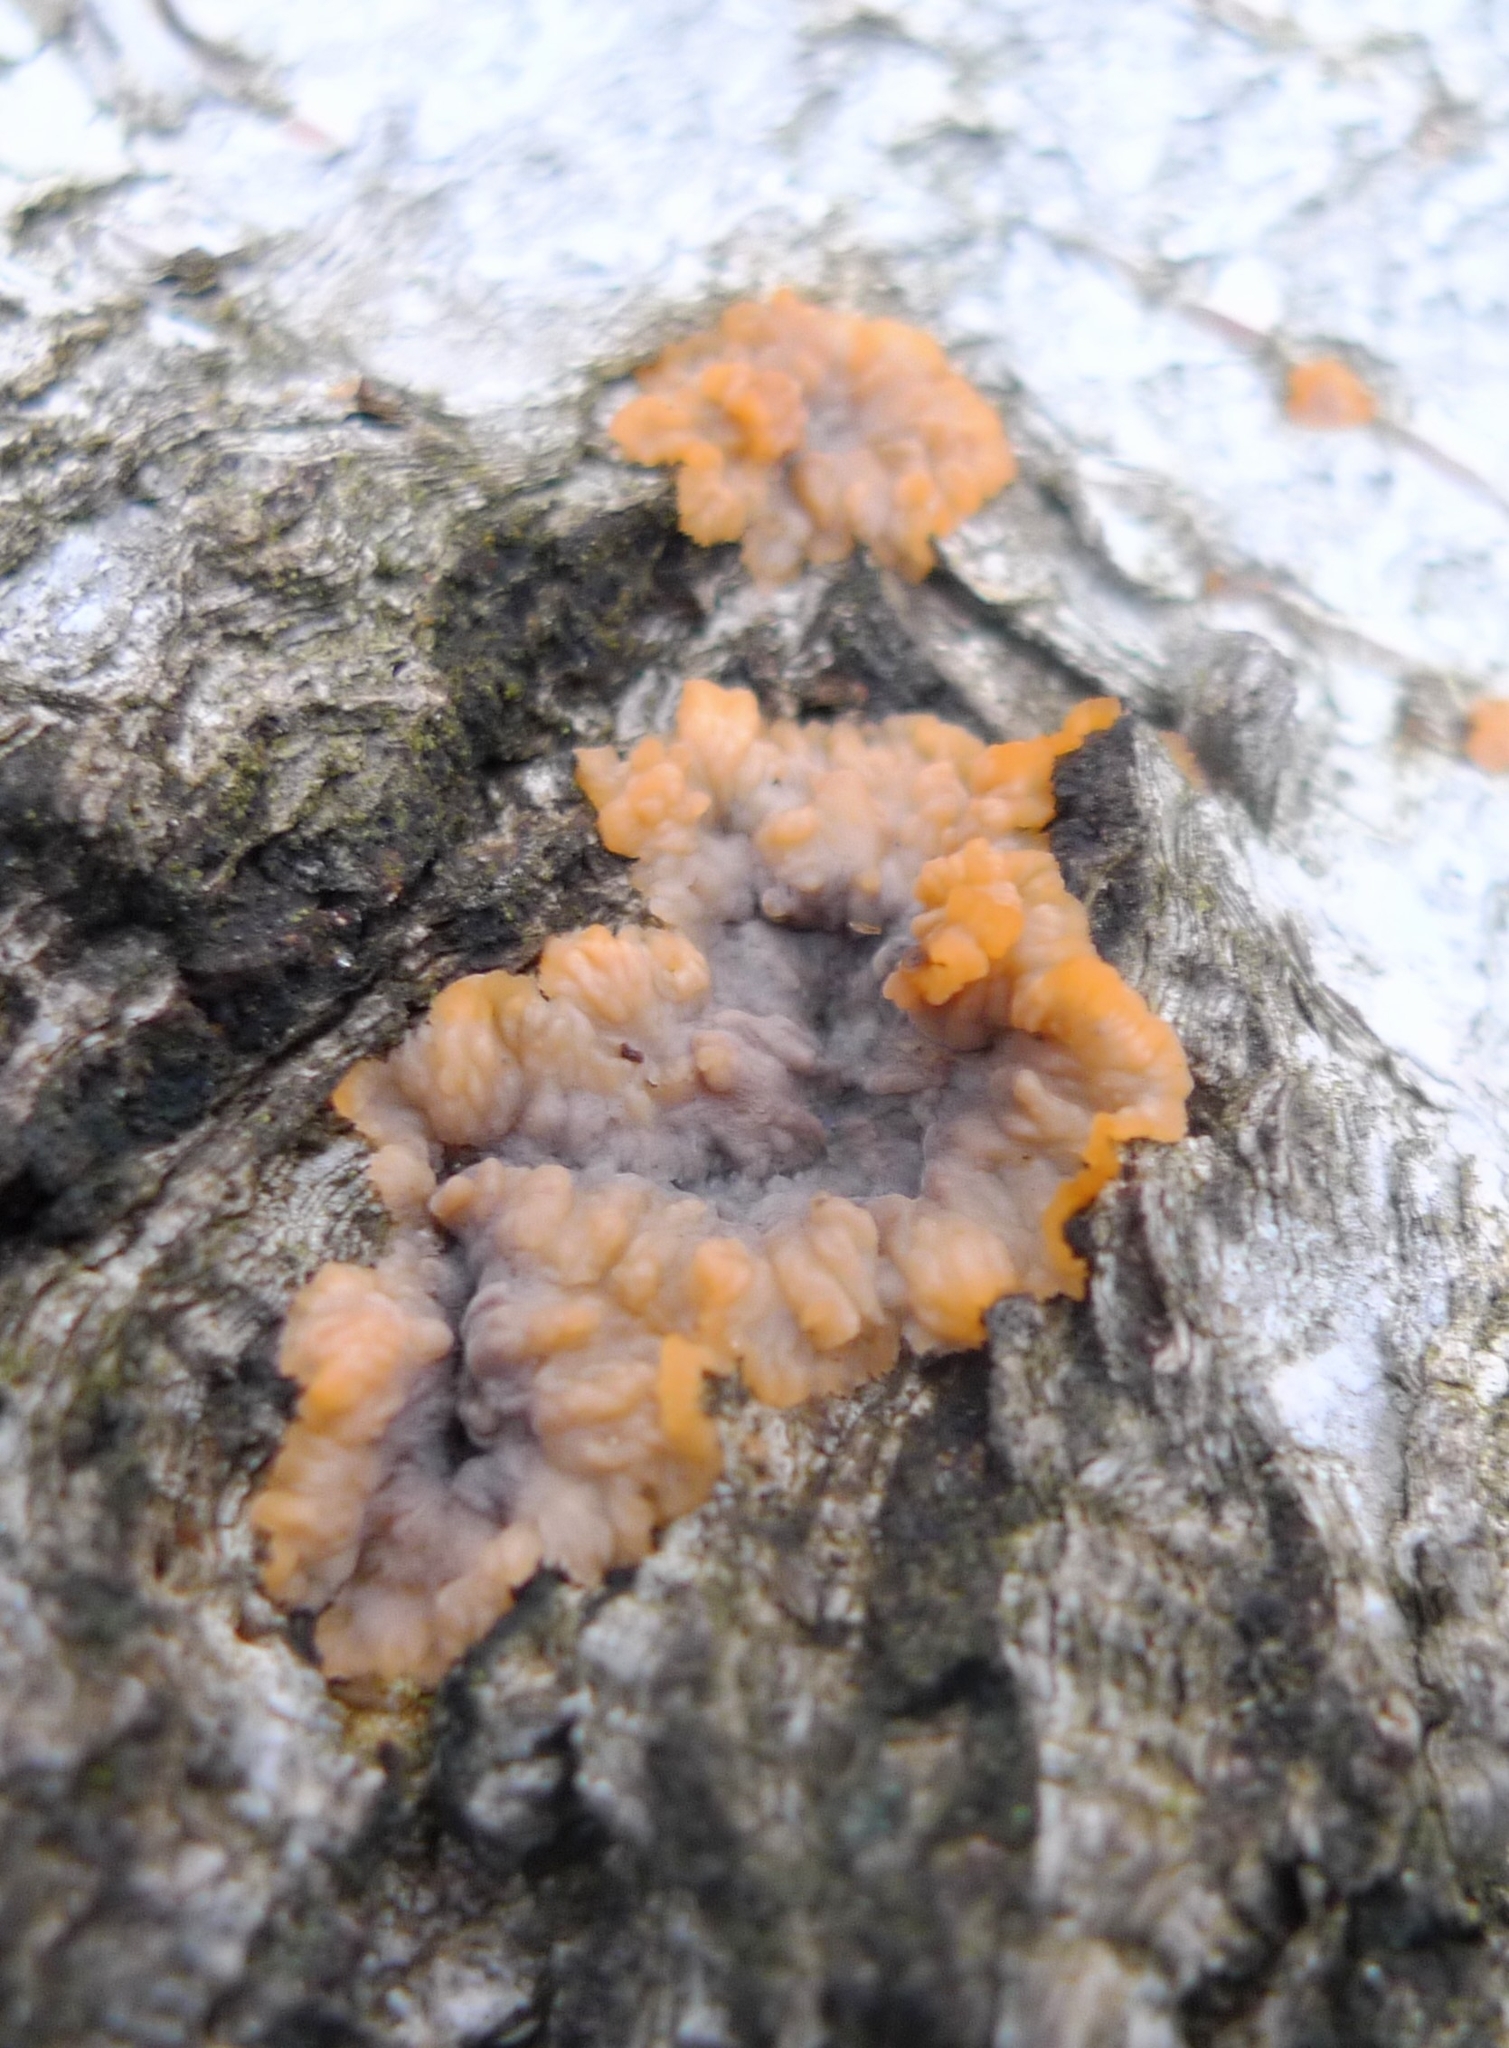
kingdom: Fungi
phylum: Basidiomycota
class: Agaricomycetes
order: Polyporales
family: Meruliaceae
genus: Phlebia
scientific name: Phlebia radiata
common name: Wrinkled crust
